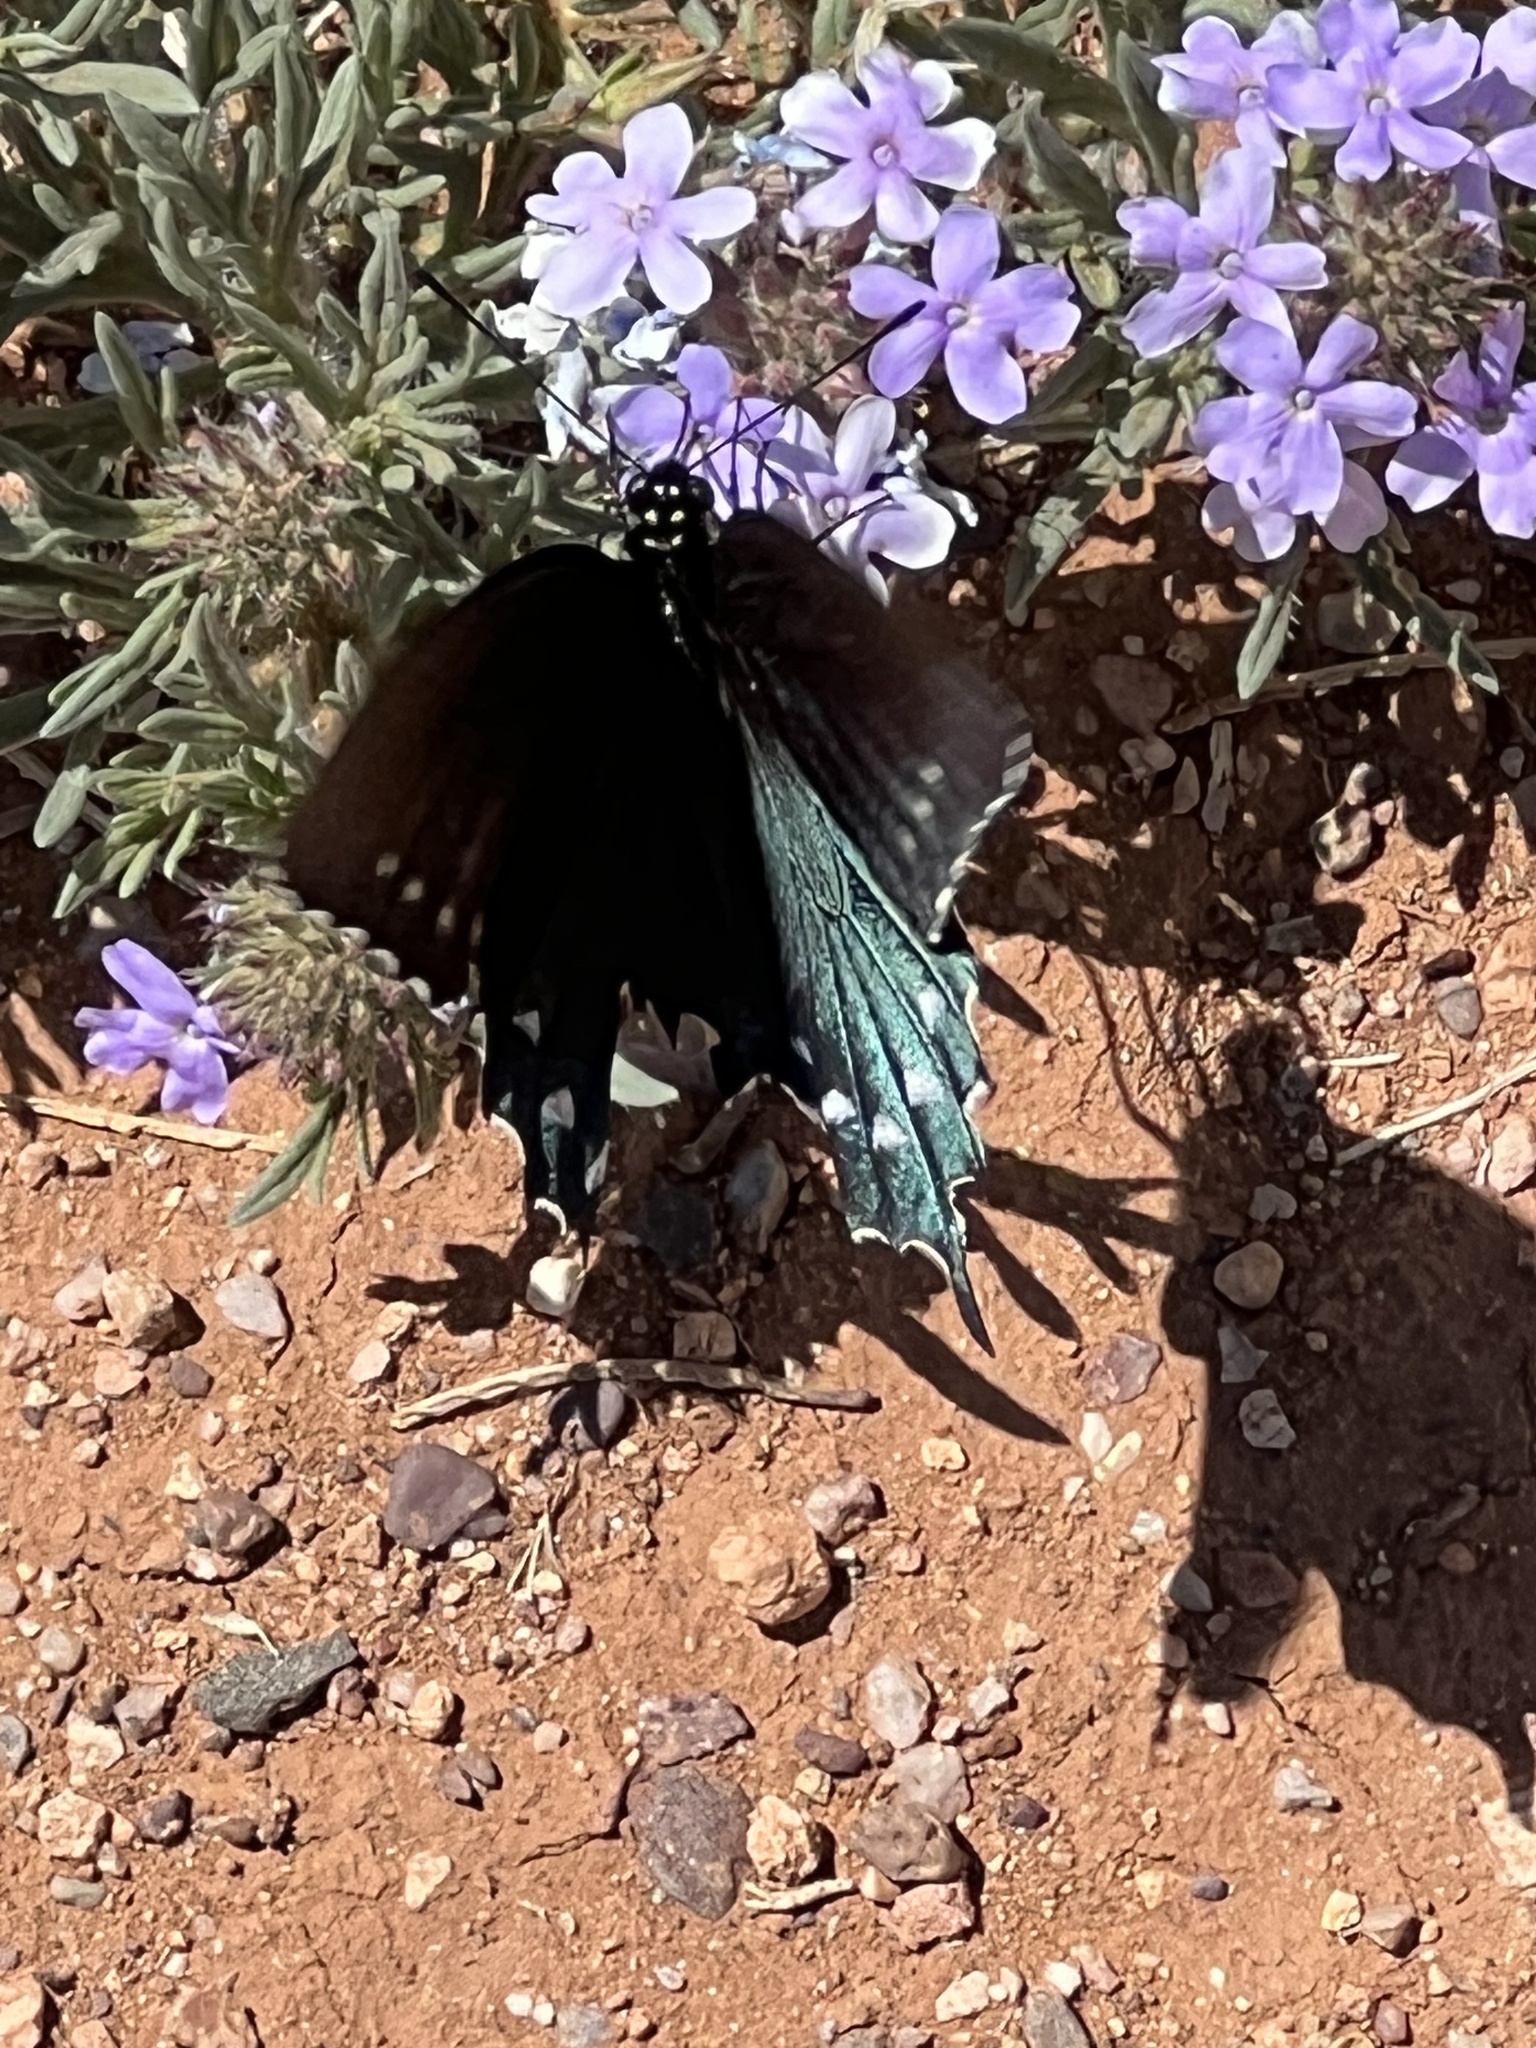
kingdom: Animalia
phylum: Arthropoda
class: Insecta
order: Lepidoptera
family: Papilionidae
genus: Battus
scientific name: Battus philenor
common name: Pipevine swallowtail
